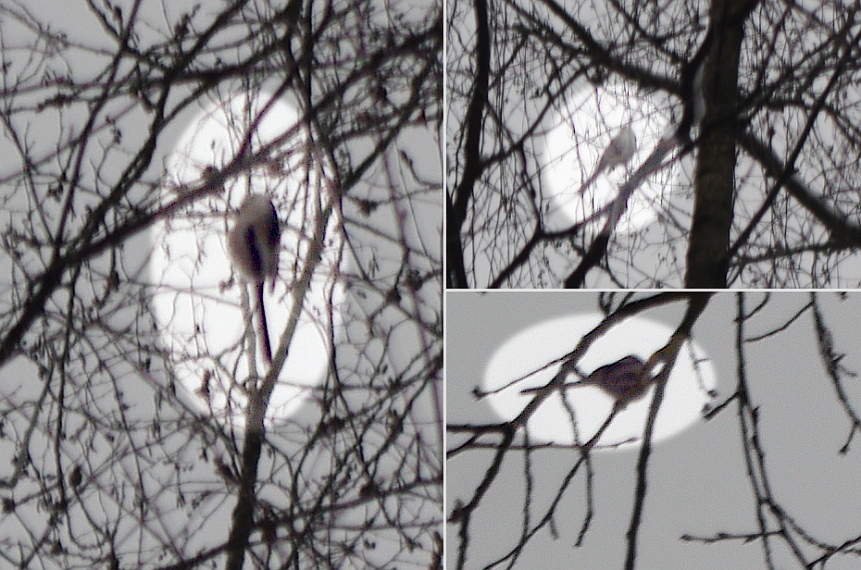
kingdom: Animalia
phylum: Chordata
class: Aves
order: Passeriformes
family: Aegithalidae
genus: Aegithalos
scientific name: Aegithalos caudatus
